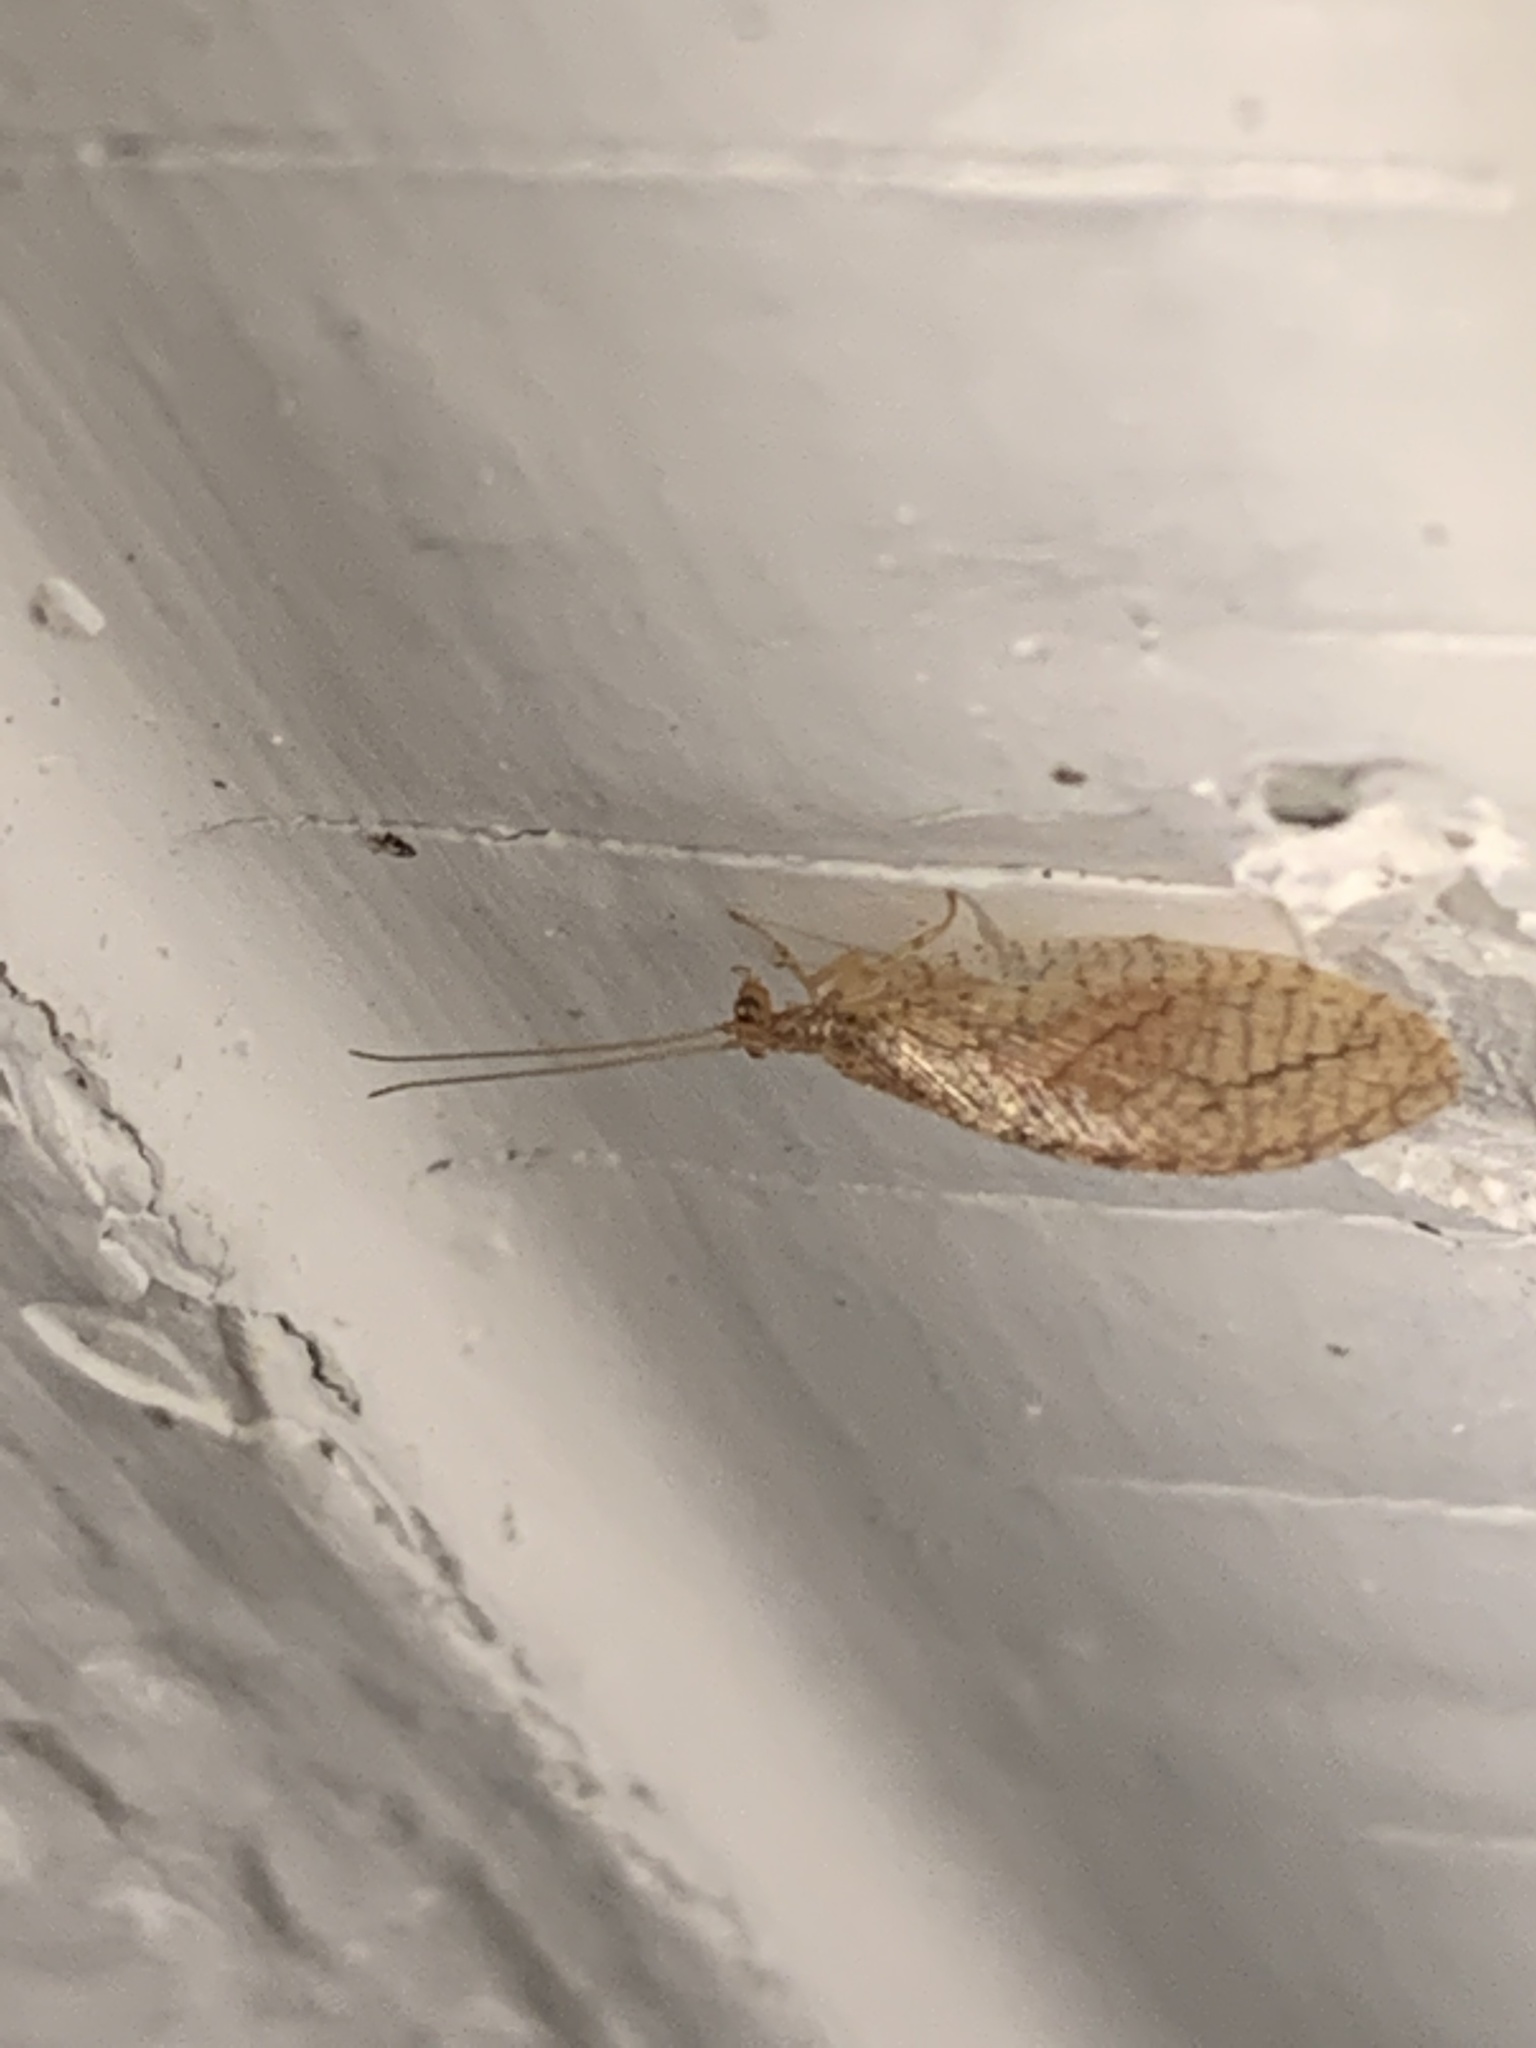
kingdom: Animalia
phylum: Arthropoda
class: Insecta
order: Neuroptera
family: Hemerobiidae
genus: Micromus
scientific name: Micromus posticus
